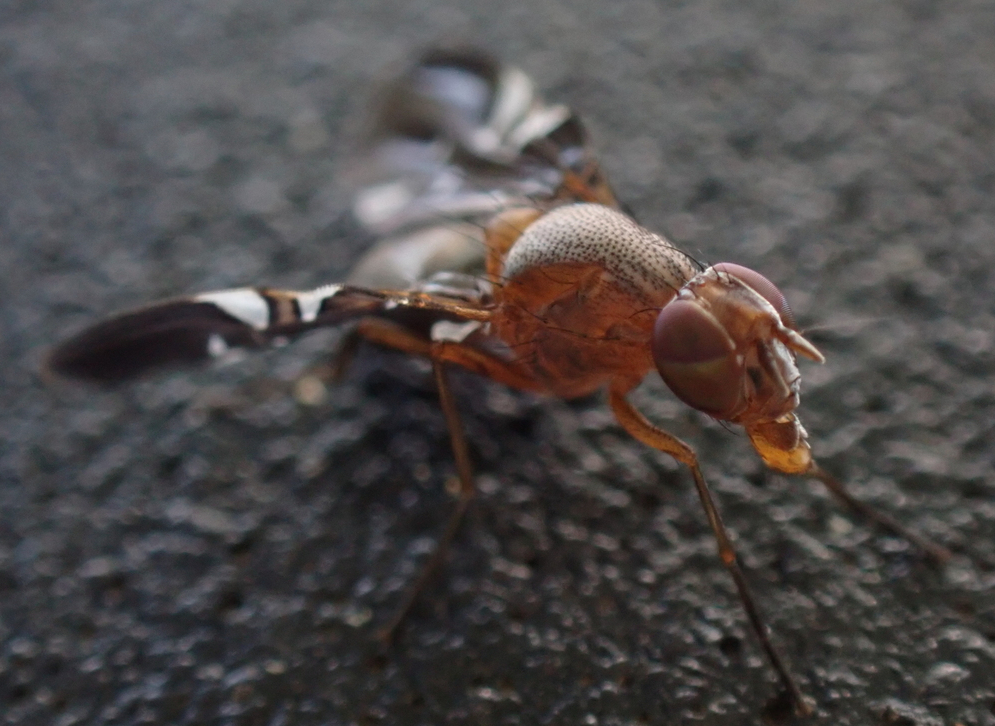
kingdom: Animalia
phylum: Arthropoda
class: Insecta
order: Diptera
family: Ulidiidae
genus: Delphinia
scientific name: Delphinia picta
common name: Common picture-winged fly
